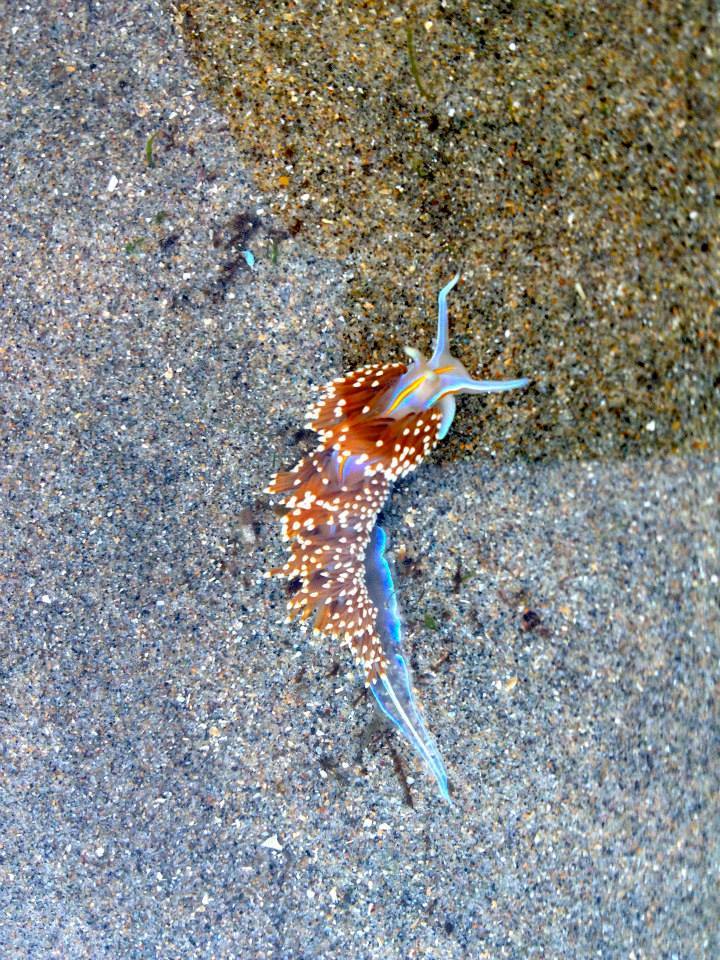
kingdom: Animalia
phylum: Mollusca
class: Gastropoda
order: Nudibranchia
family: Myrrhinidae
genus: Hermissenda
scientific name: Hermissenda opalescens
